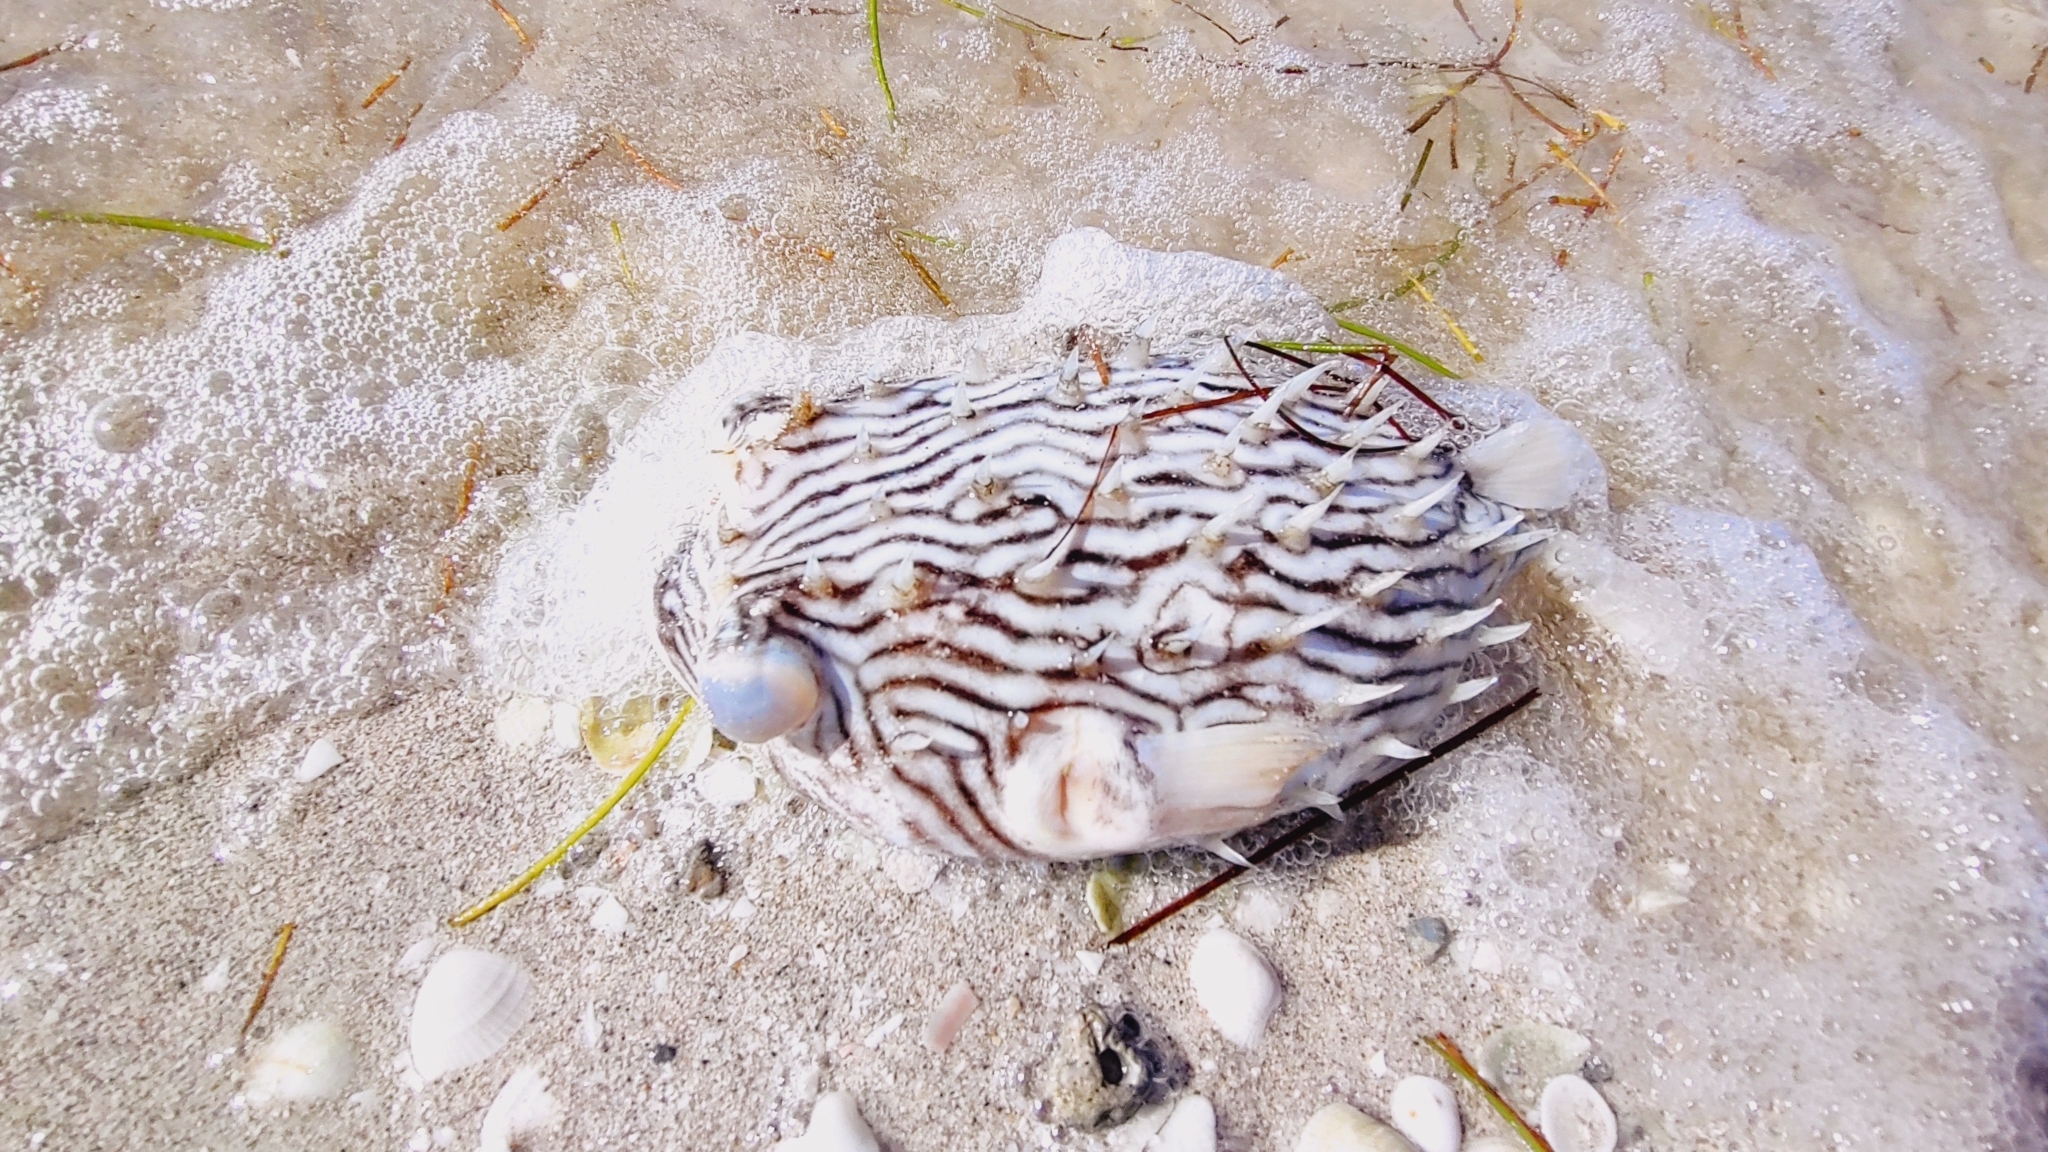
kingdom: Animalia
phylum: Chordata
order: Tetraodontiformes
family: Diodontidae
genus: Chilomycterus
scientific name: Chilomycterus schoepfii
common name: Striped burrfish
